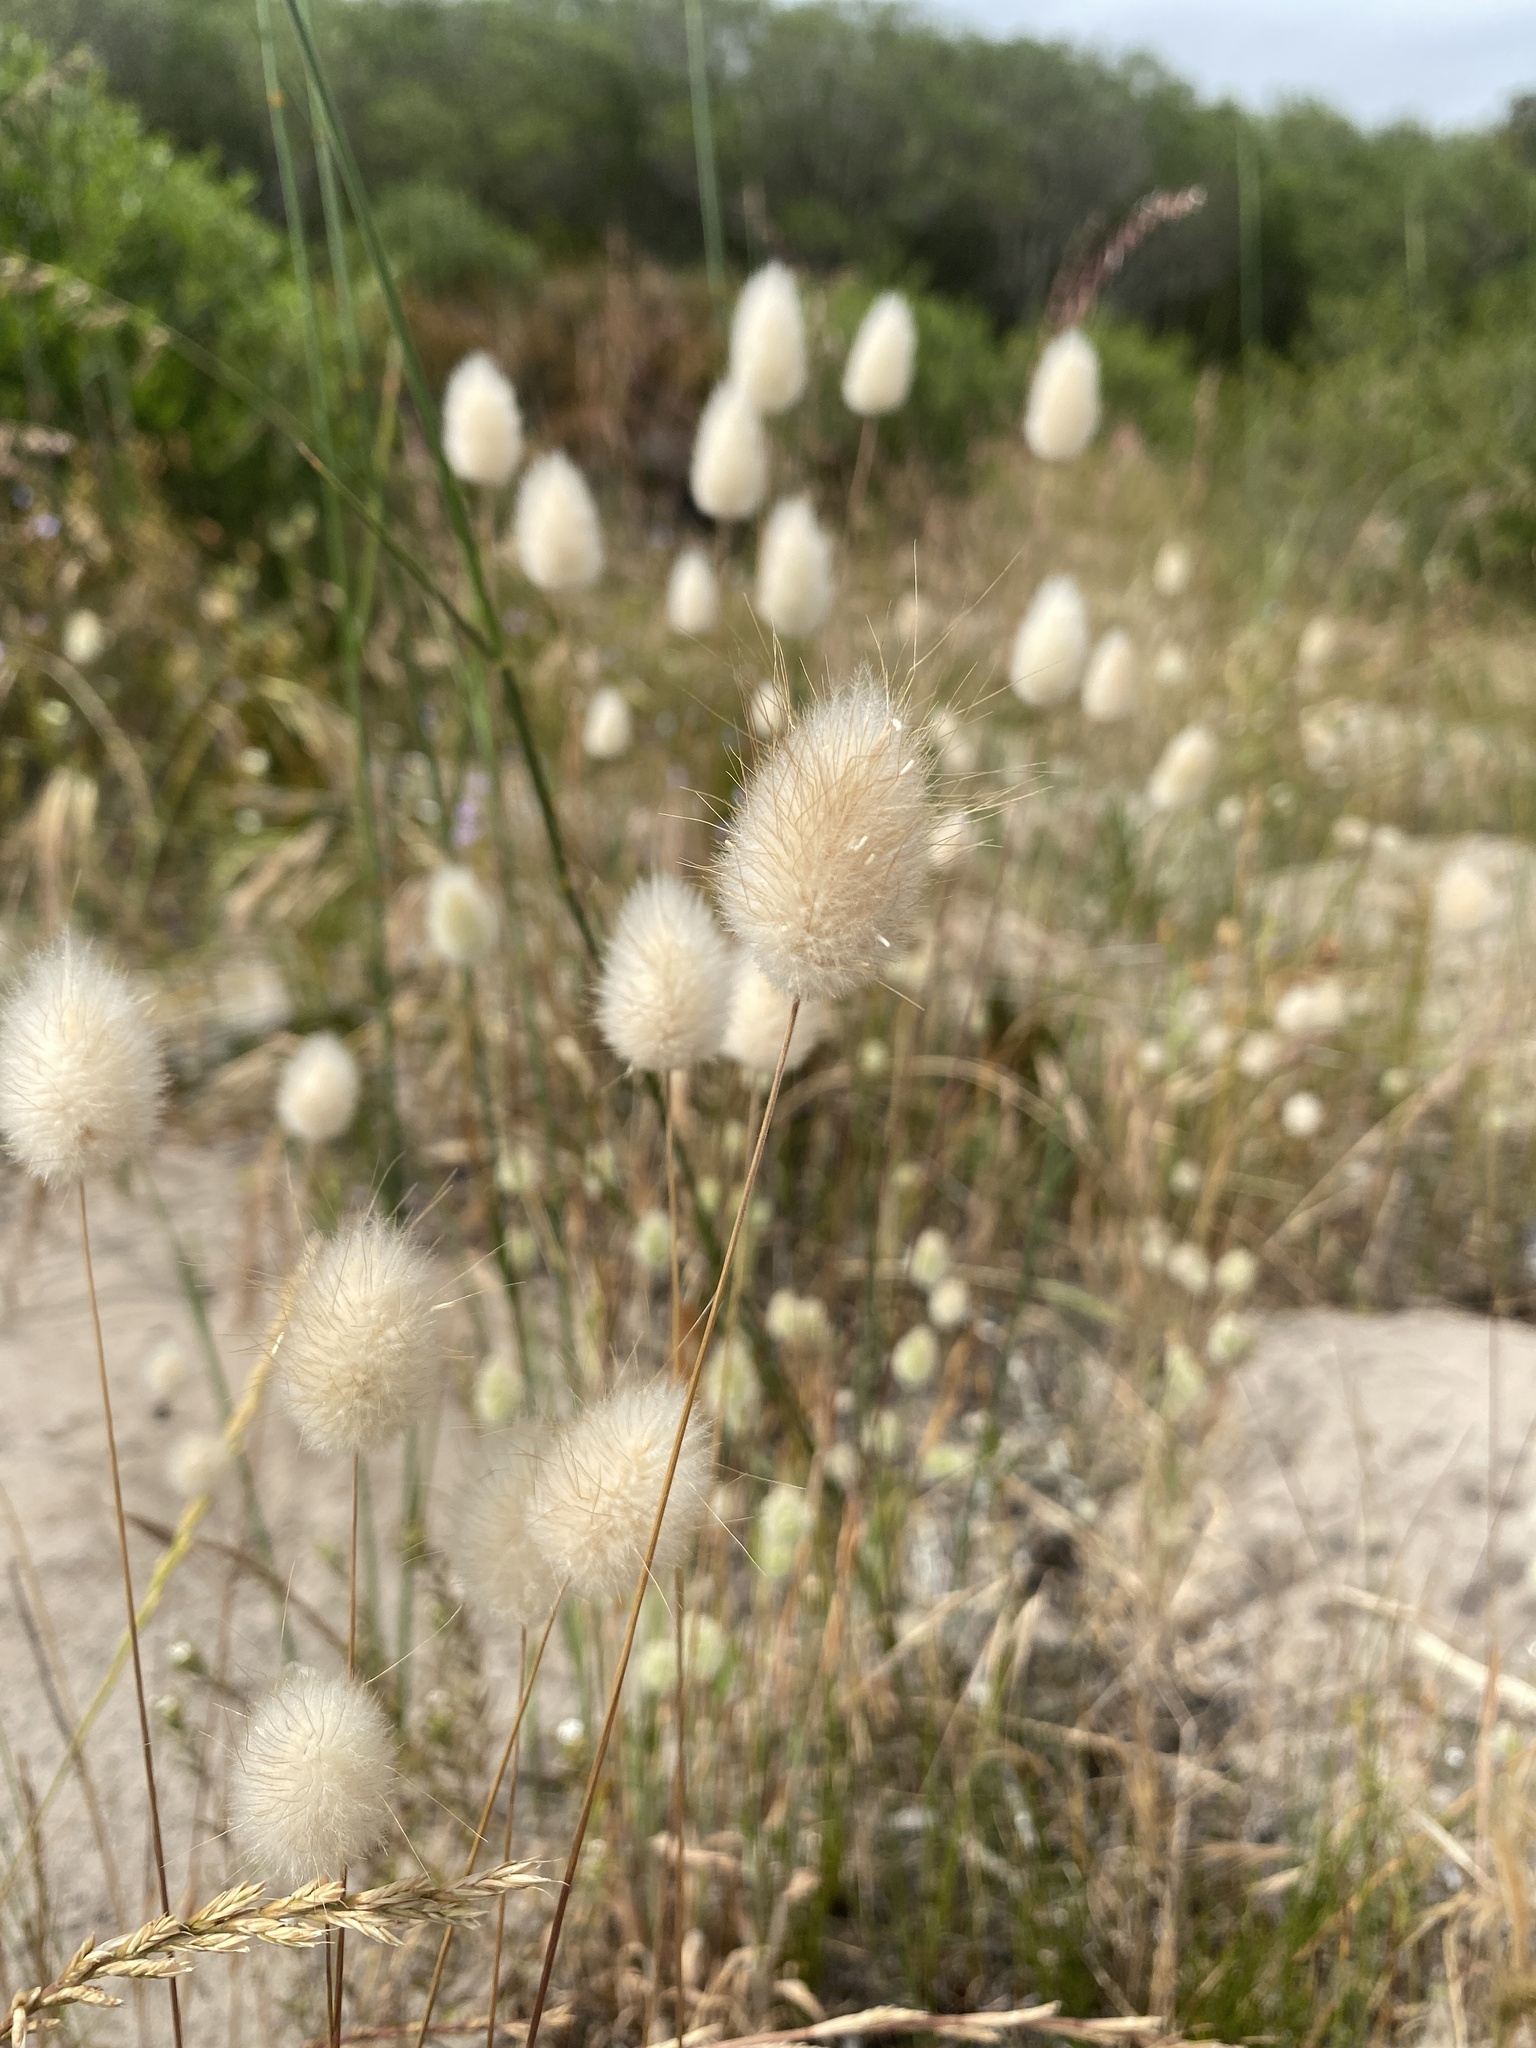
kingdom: Plantae
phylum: Tracheophyta
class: Liliopsida
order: Poales
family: Poaceae
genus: Lagurus
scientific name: Lagurus ovatus
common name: Hare's-tail
